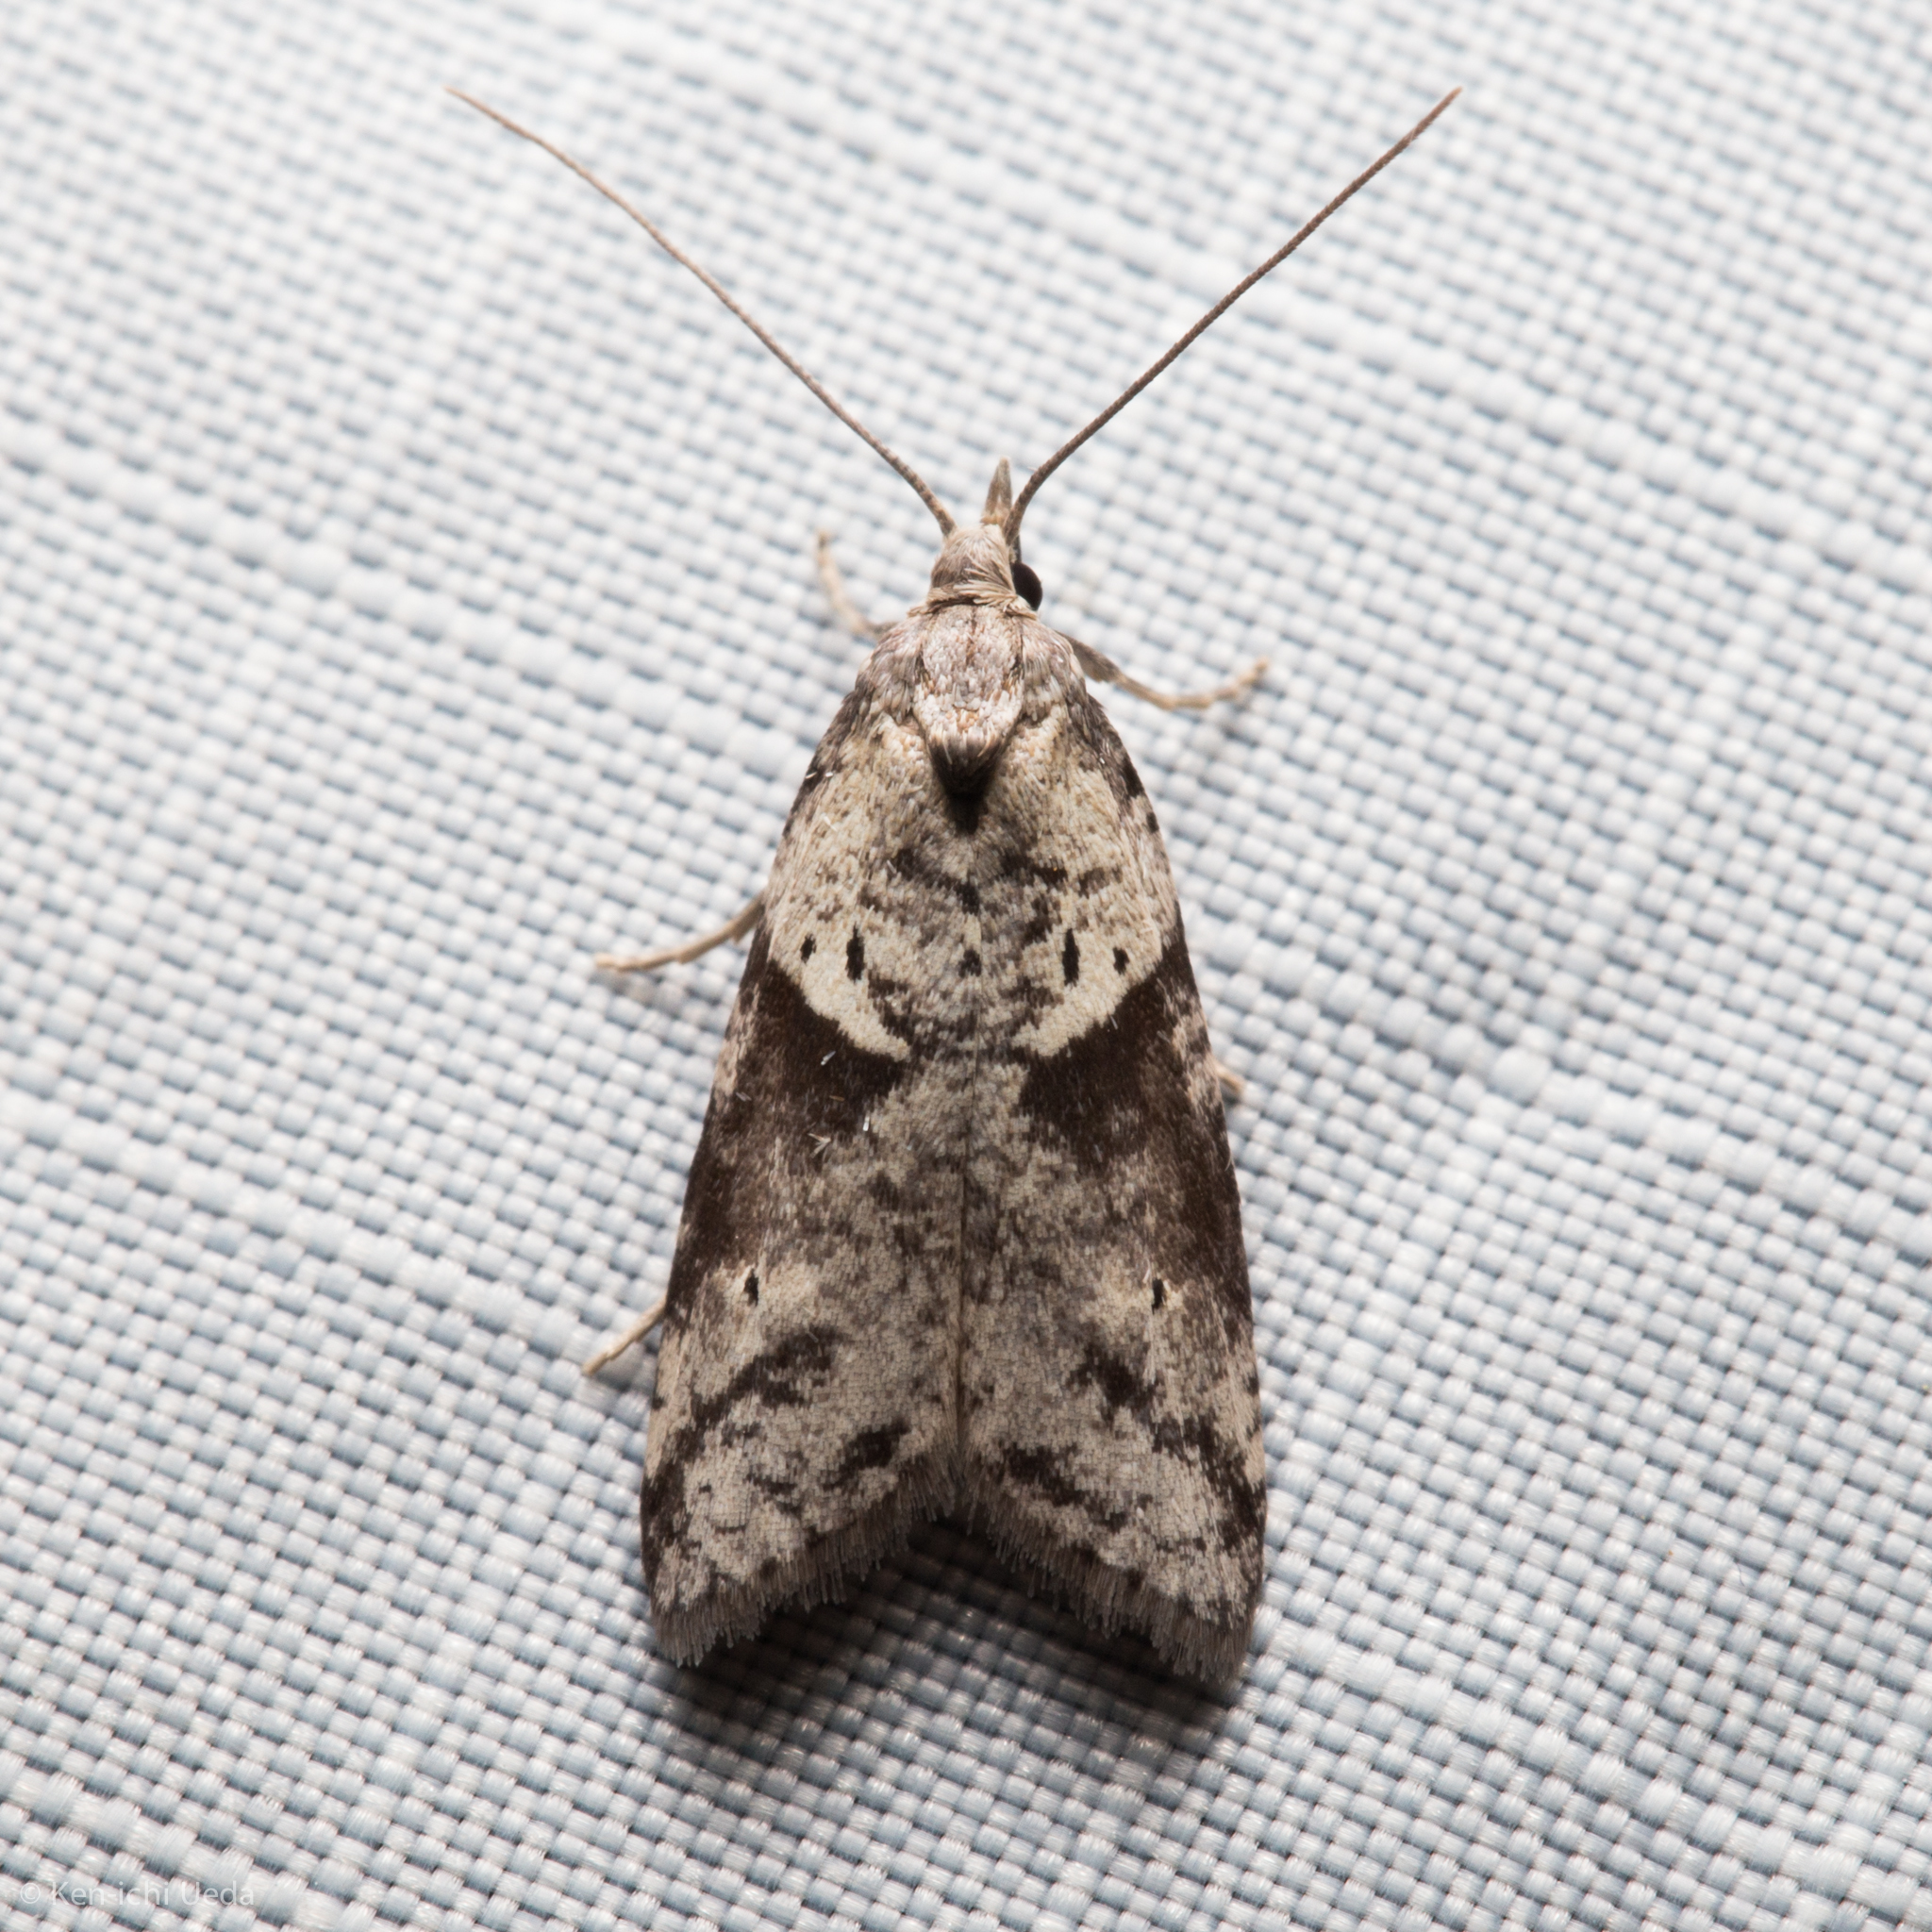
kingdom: Animalia
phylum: Arthropoda
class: Insecta
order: Lepidoptera
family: Copromorphidae
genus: Lotisma
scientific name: Lotisma trigonana
